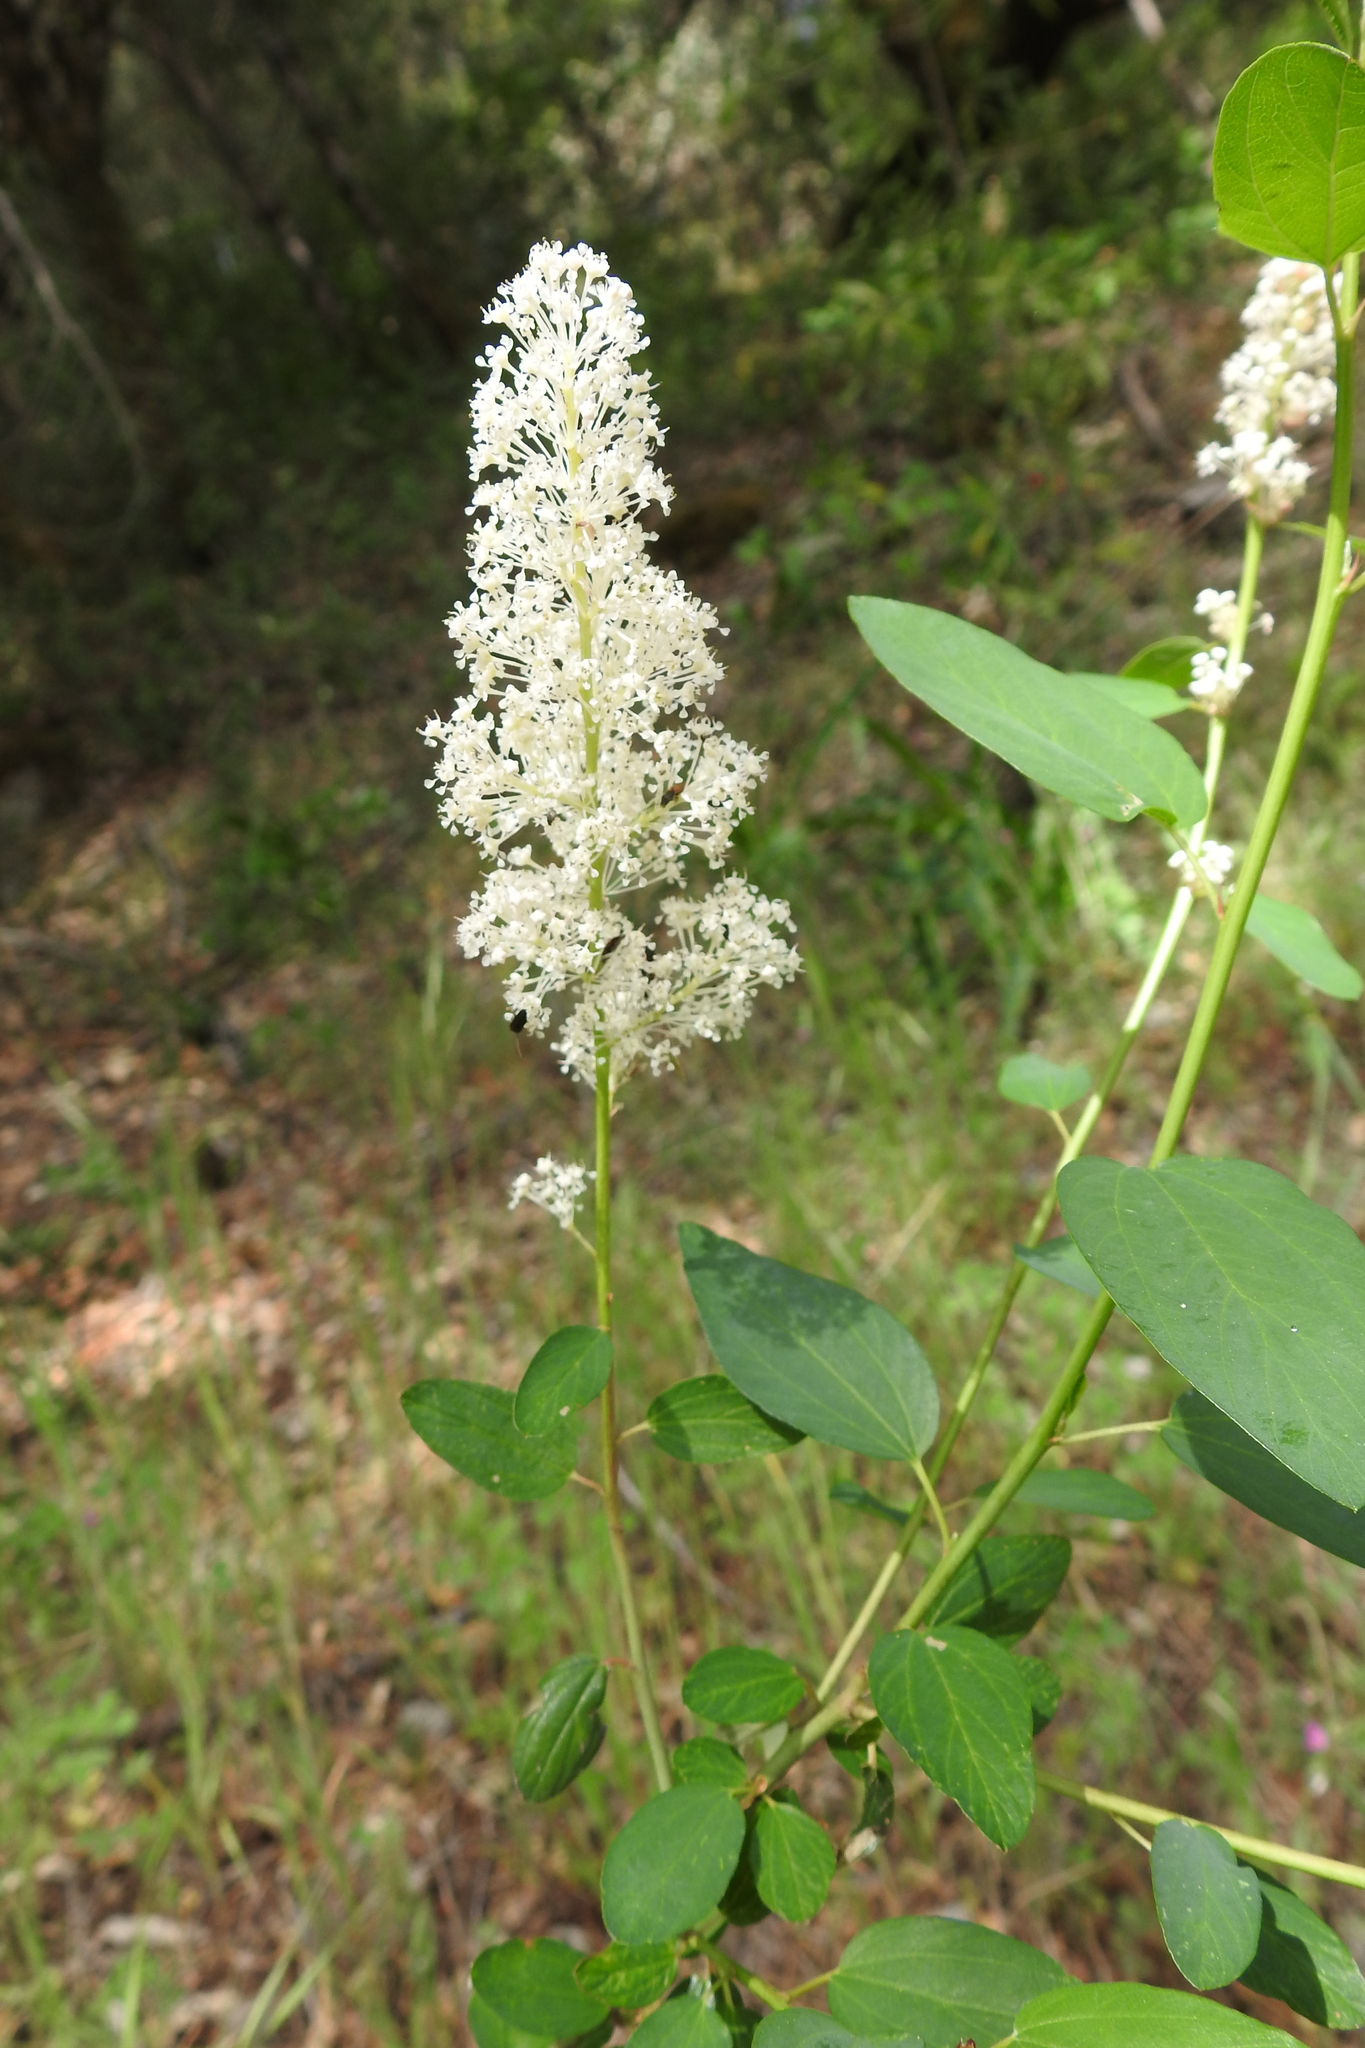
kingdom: Plantae
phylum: Tracheophyta
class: Magnoliopsida
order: Rosales
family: Rhamnaceae
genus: Ceanothus
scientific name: Ceanothus integerrimus
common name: Deerbrush ceanothus
